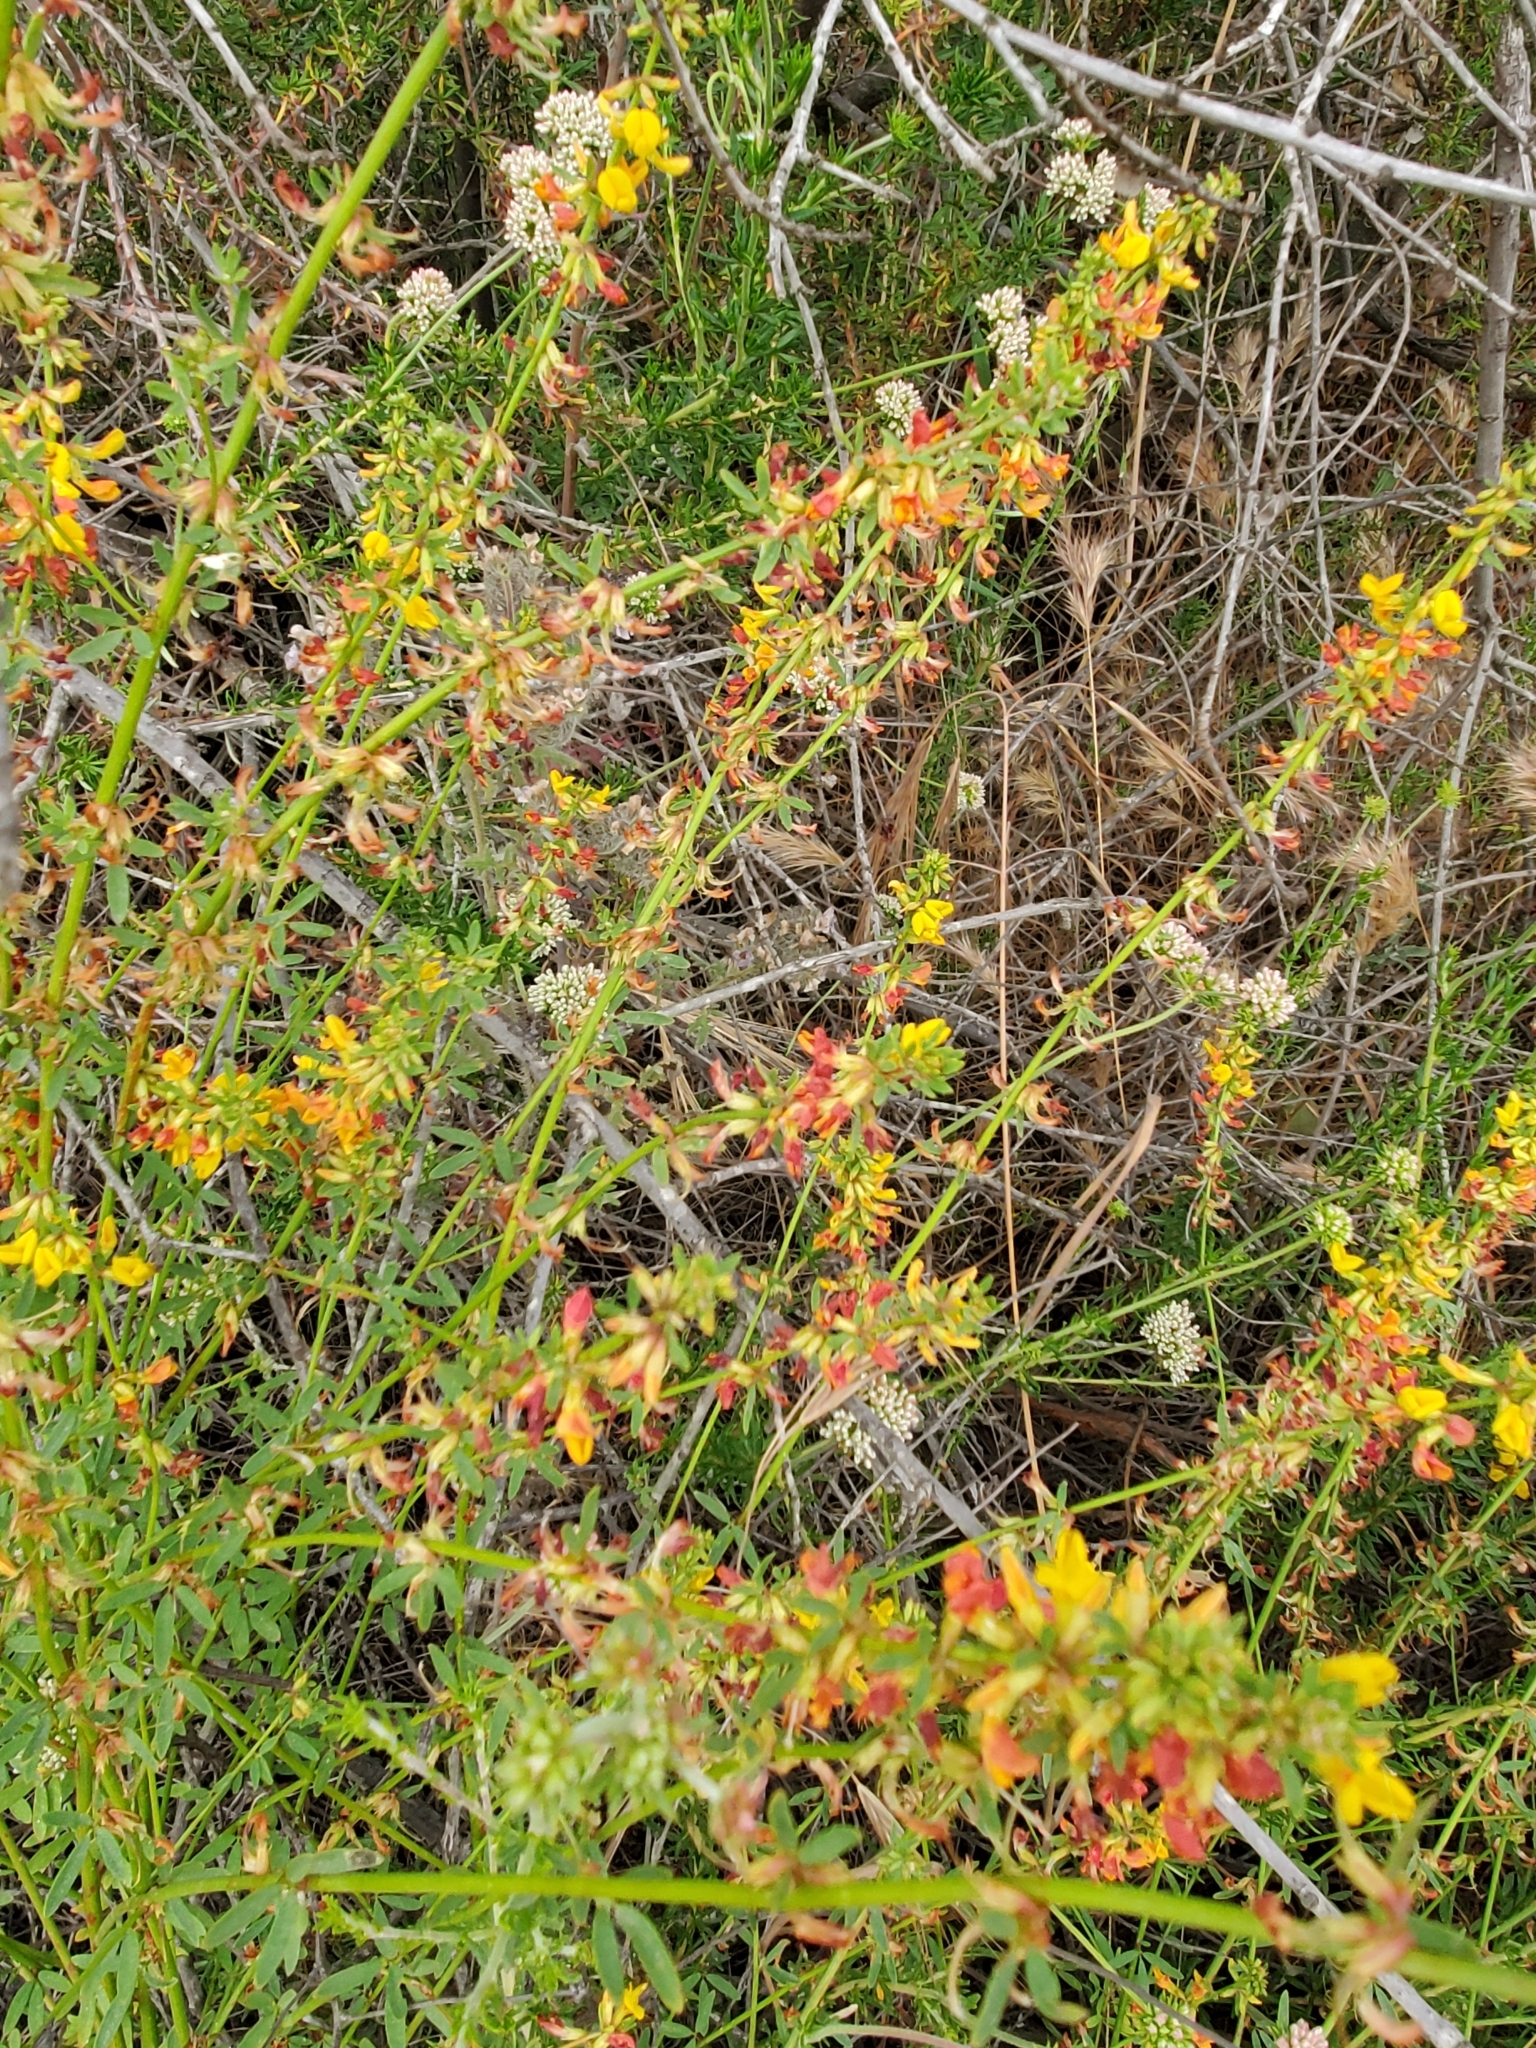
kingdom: Plantae
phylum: Tracheophyta
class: Magnoliopsida
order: Fabales
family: Fabaceae
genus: Acmispon
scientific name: Acmispon glaber
